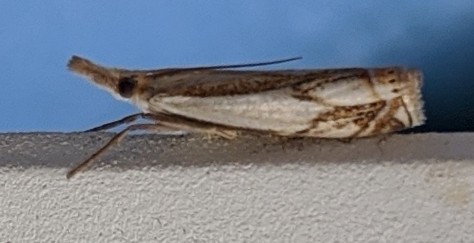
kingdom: Animalia
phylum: Arthropoda
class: Insecta
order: Lepidoptera
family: Crambidae
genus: Crambus
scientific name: Crambus agitatellus
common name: Double-banded grass-veneer
